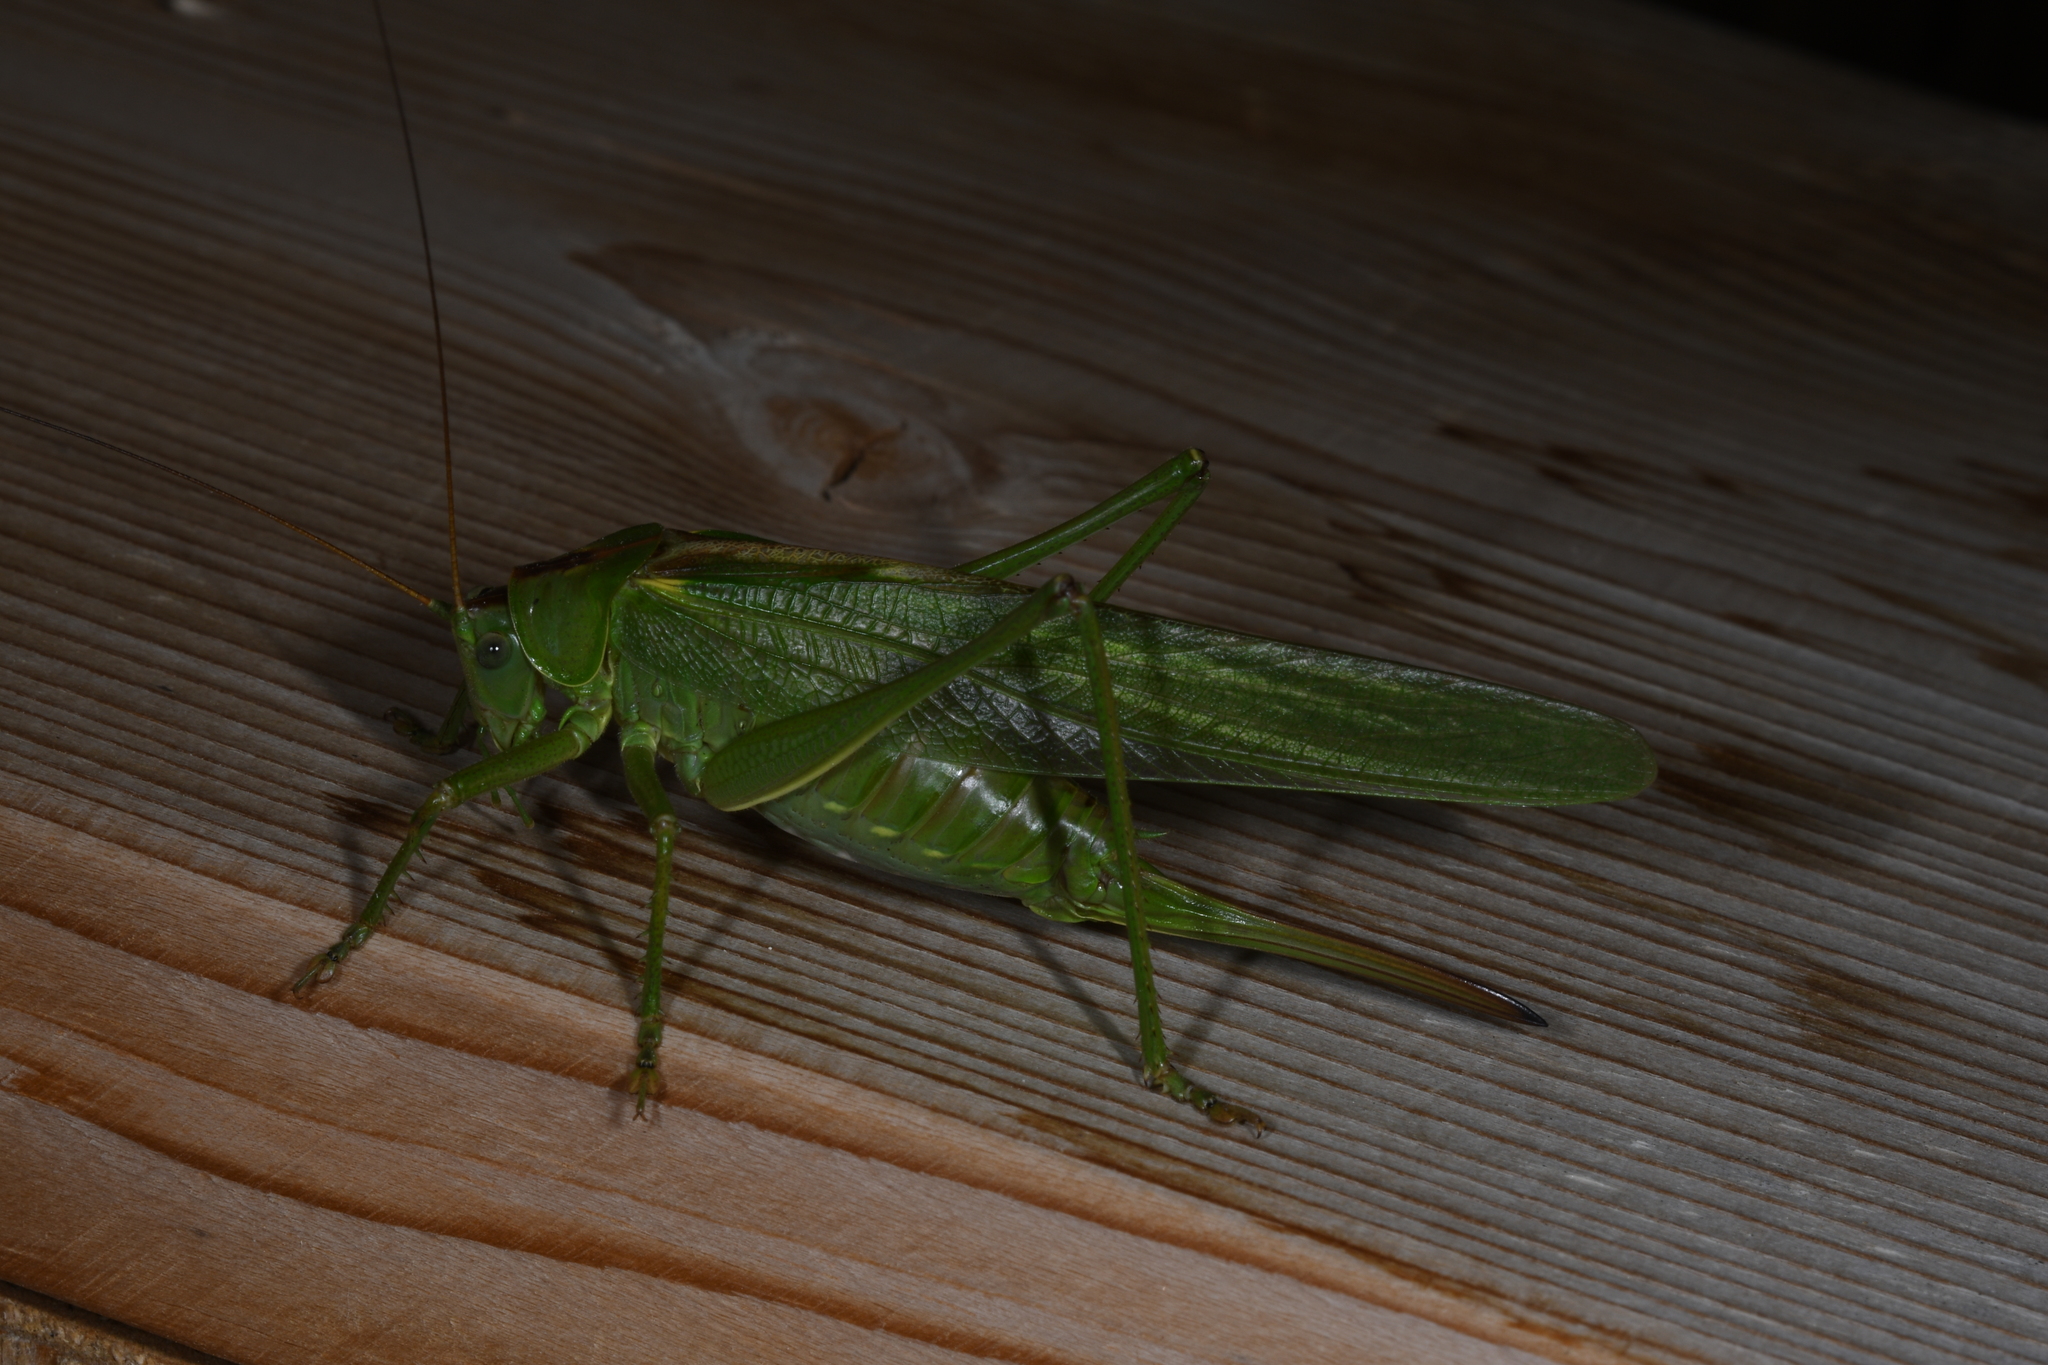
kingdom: Animalia
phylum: Arthropoda
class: Insecta
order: Orthoptera
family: Tettigoniidae
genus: Tettigonia
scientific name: Tettigonia viridissima
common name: Great green bush-cricket
